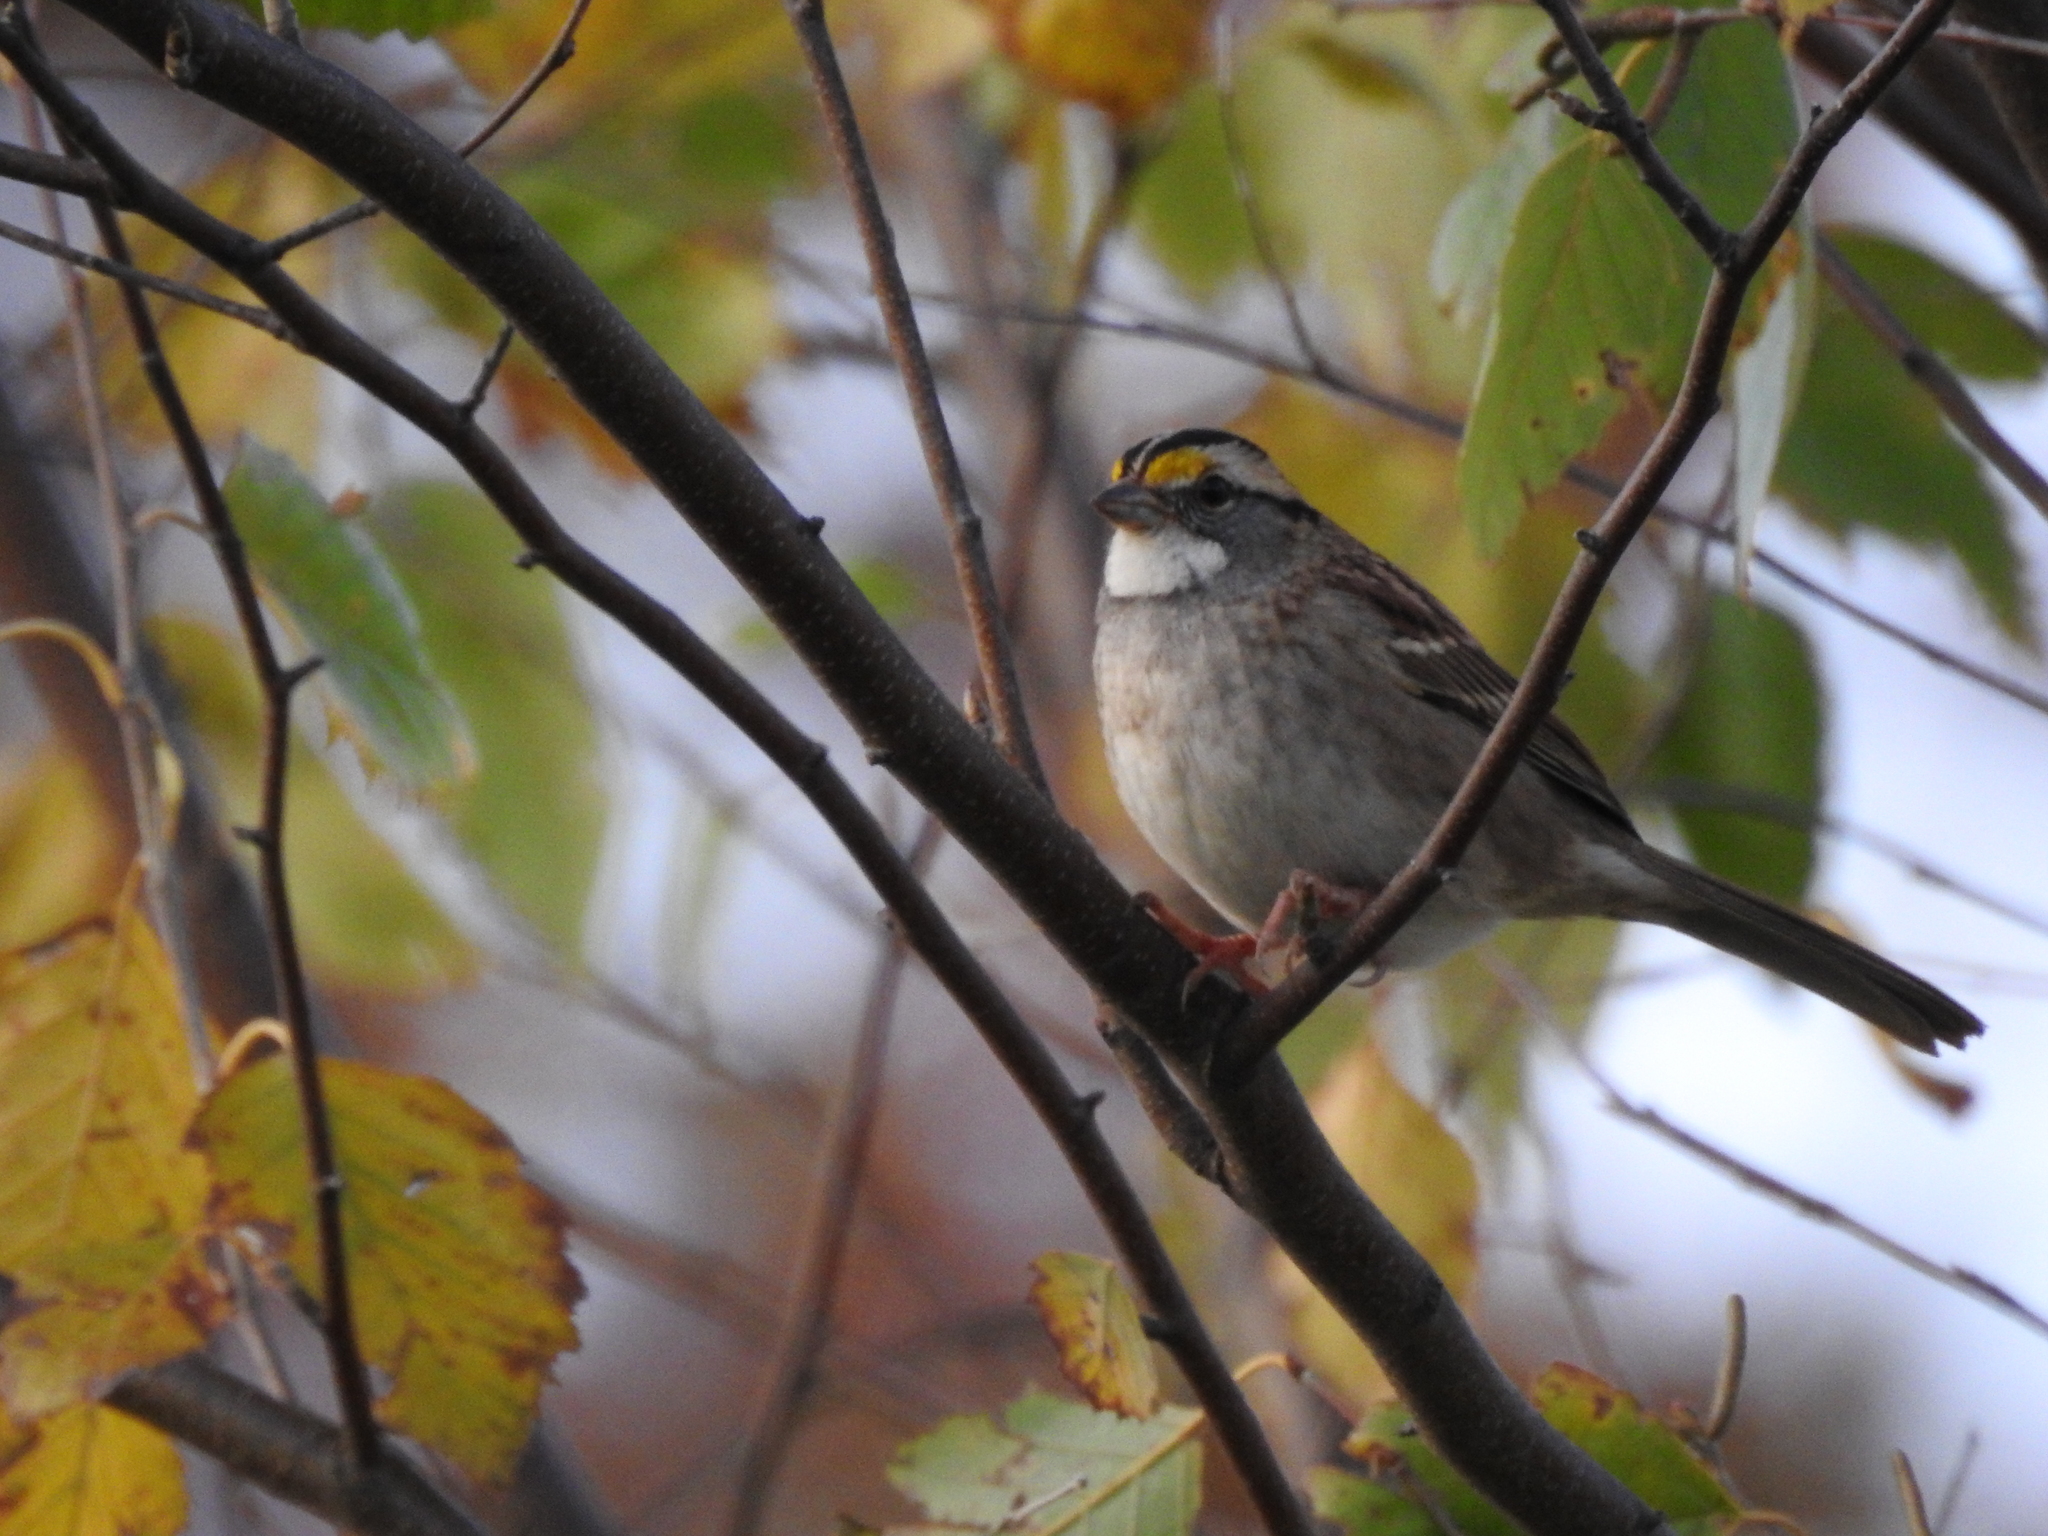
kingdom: Animalia
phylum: Chordata
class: Aves
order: Passeriformes
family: Passerellidae
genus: Zonotrichia
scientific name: Zonotrichia albicollis
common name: White-throated sparrow
